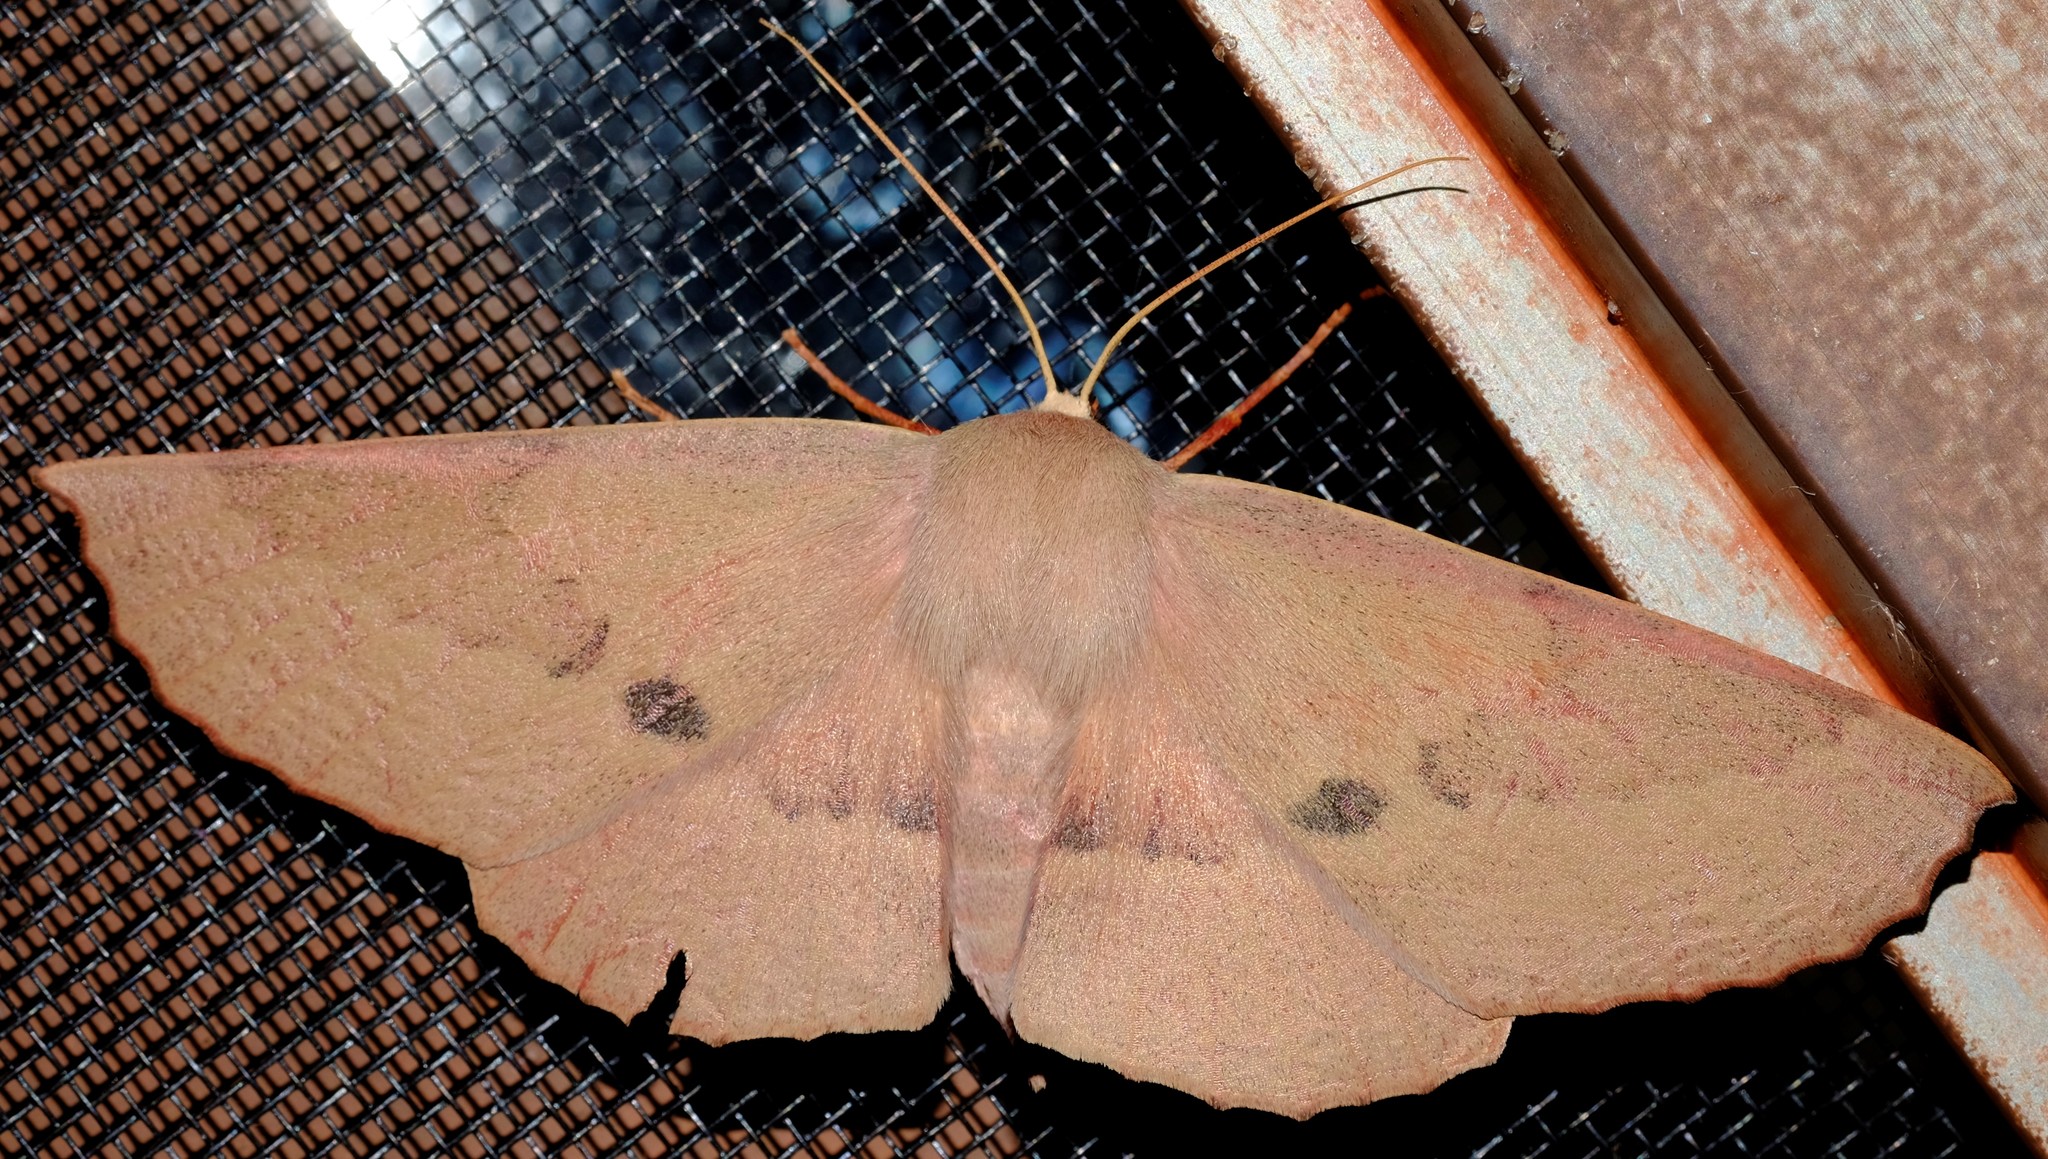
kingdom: Animalia
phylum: Arthropoda
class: Insecta
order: Lepidoptera
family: Geometridae
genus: Monoctenia
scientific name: Monoctenia falernaria
